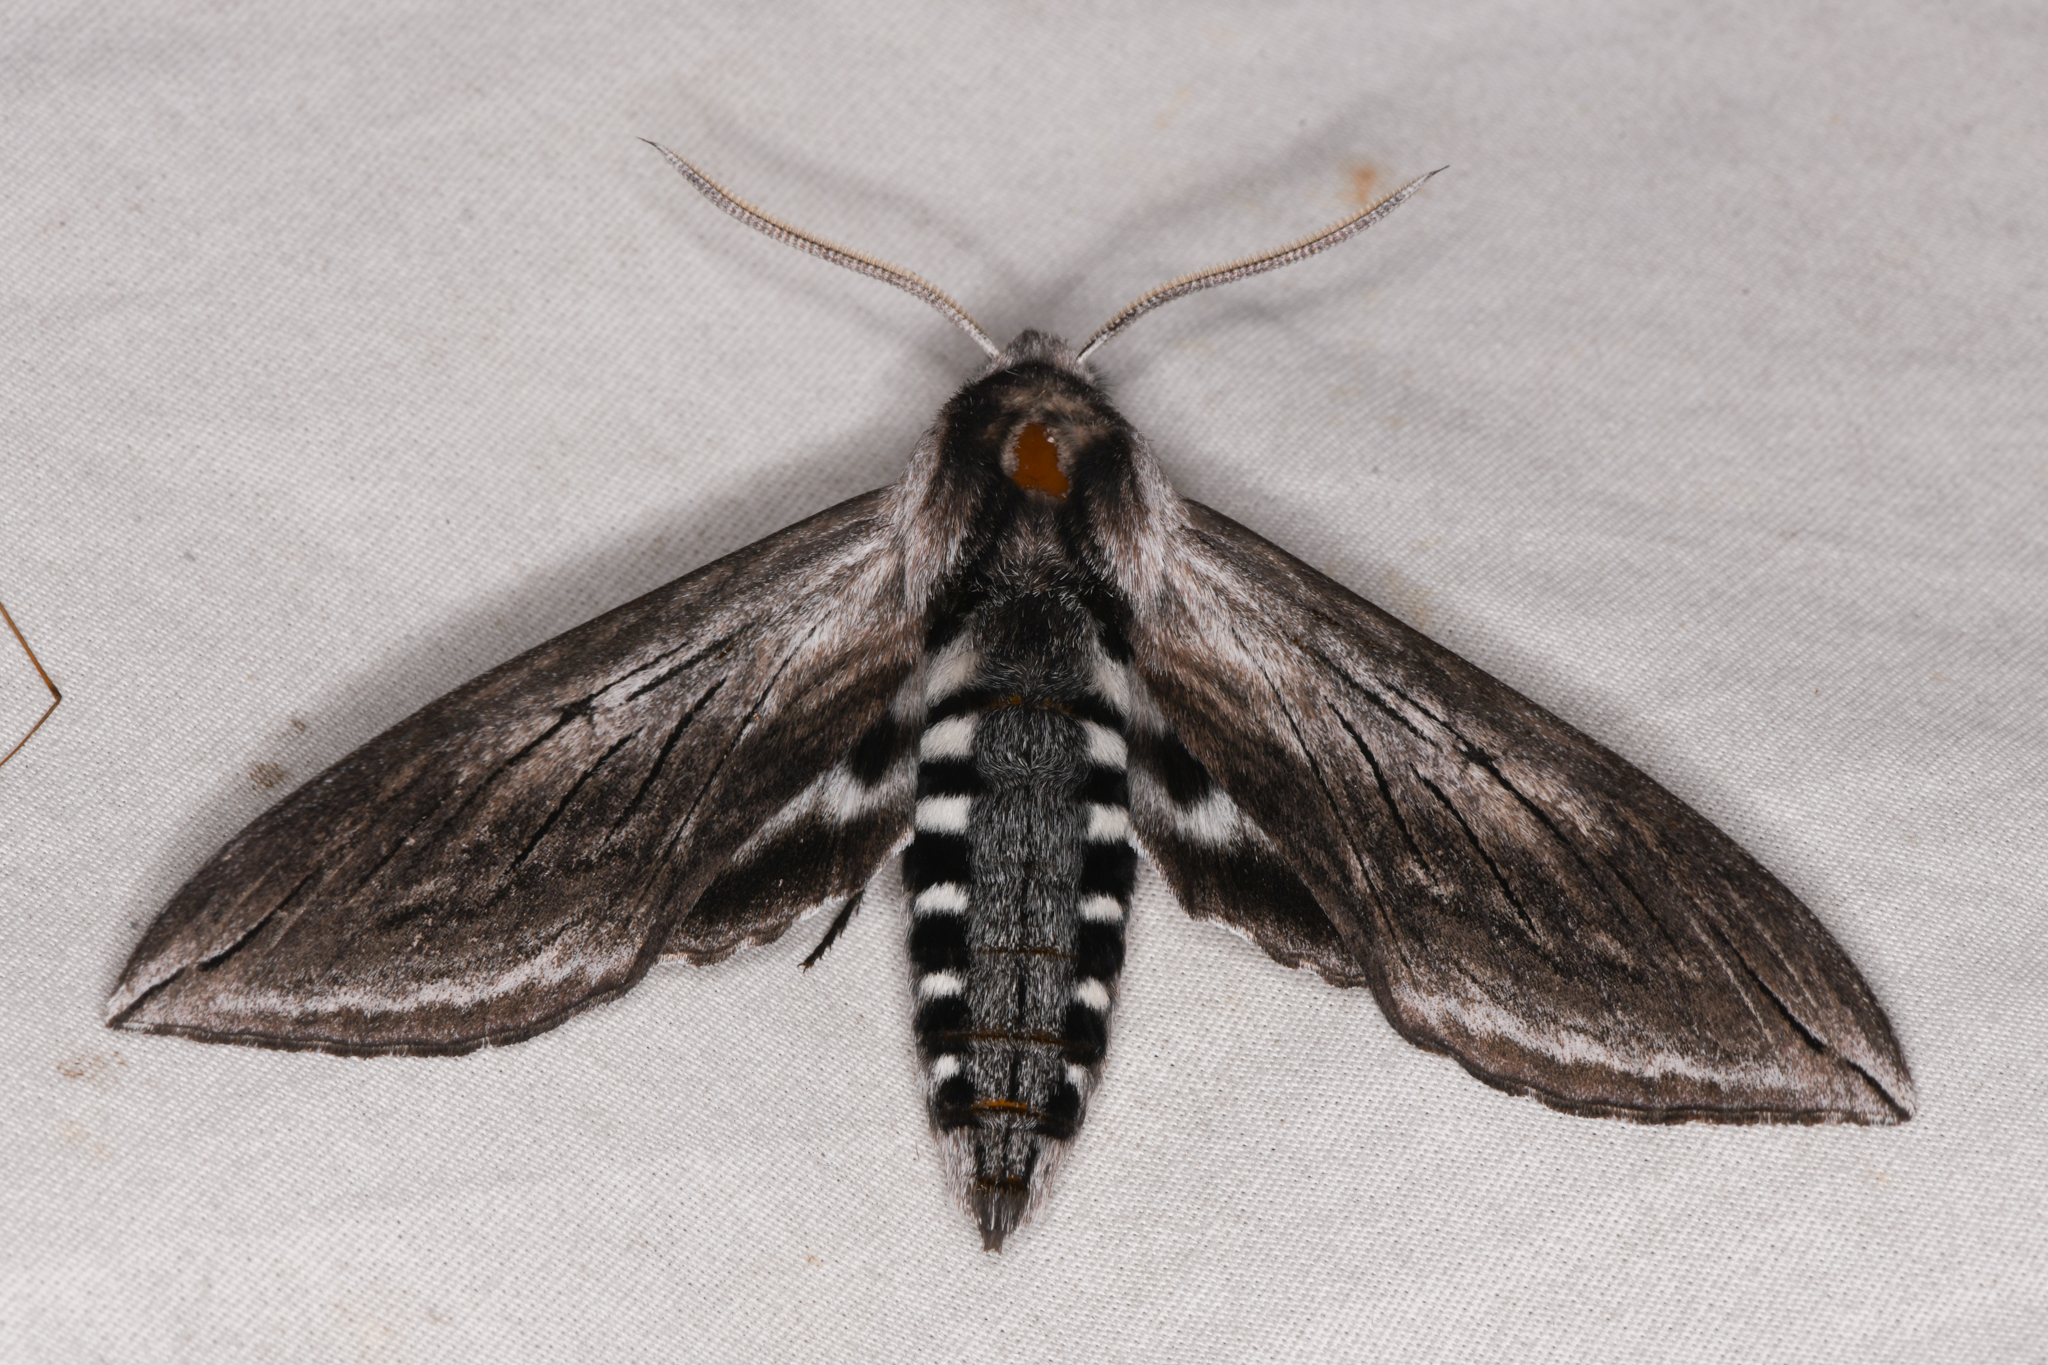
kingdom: Animalia
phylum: Arthropoda
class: Insecta
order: Lepidoptera
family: Sphingidae
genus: Sphinx
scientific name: Sphinx perelegans
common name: Elegant sphinx
